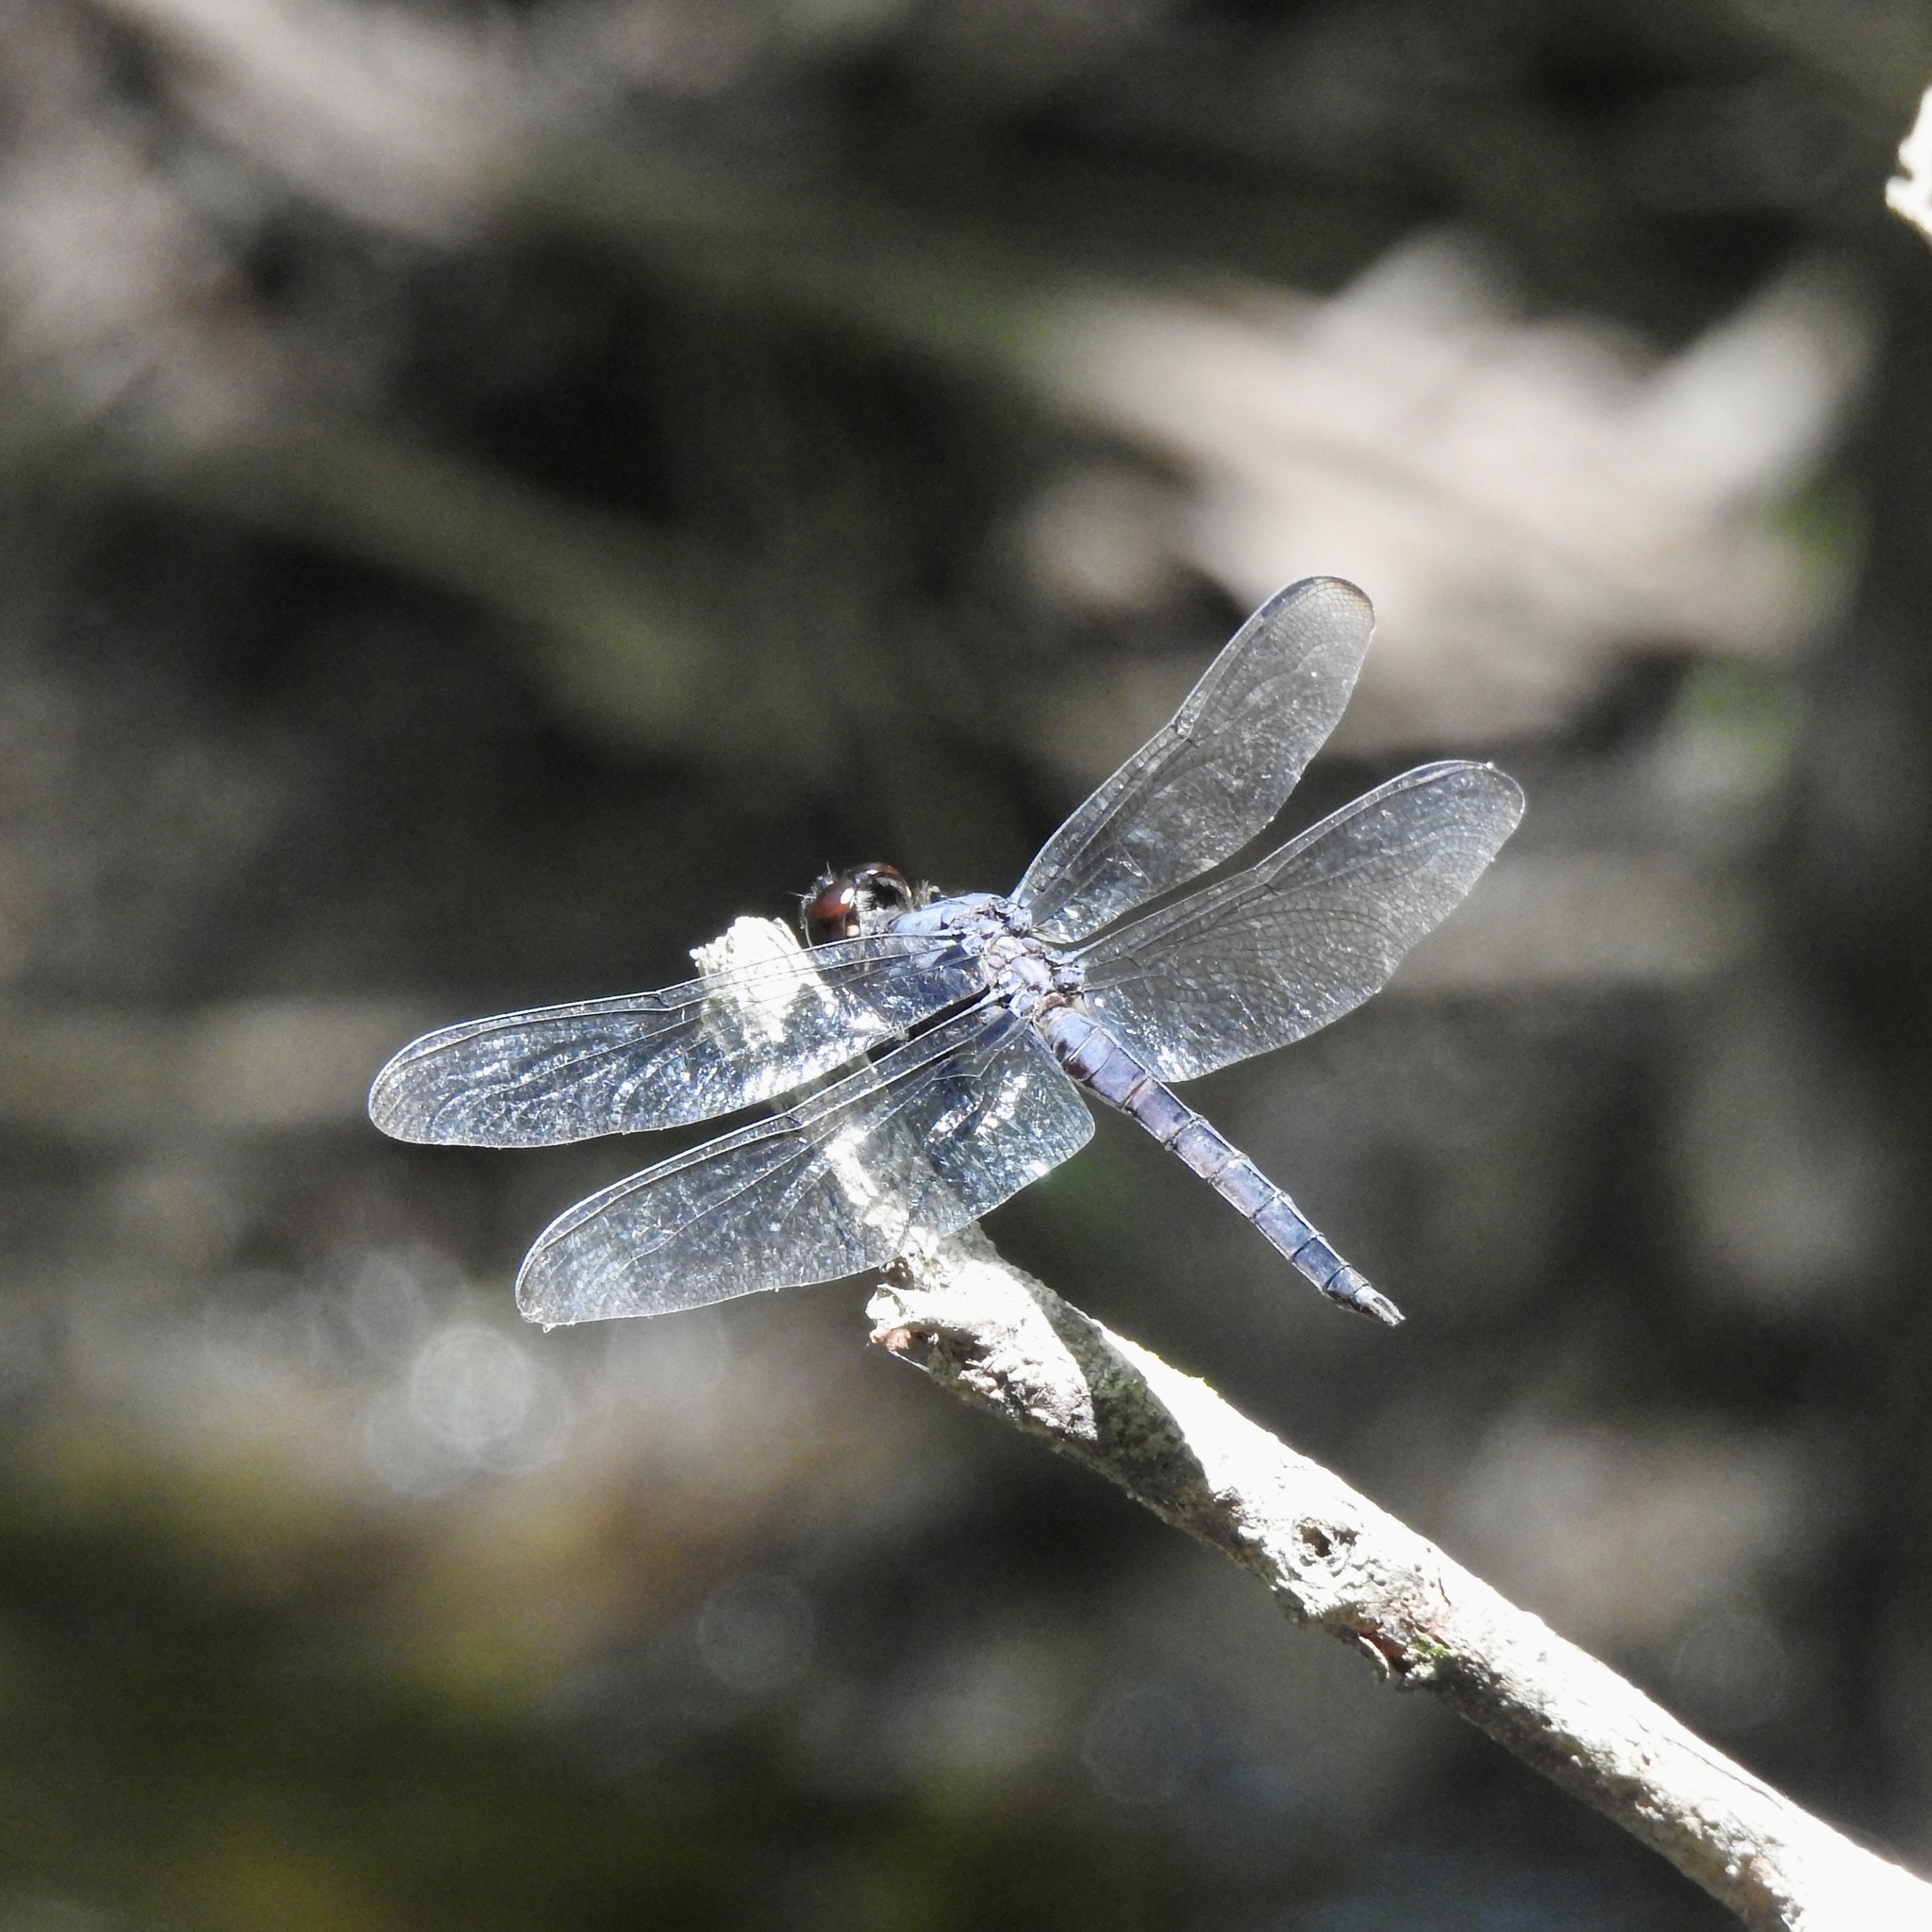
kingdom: Animalia
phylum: Arthropoda
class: Insecta
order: Odonata
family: Libellulidae
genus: Libellula
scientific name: Libellula incesta
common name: Slaty skimmer
